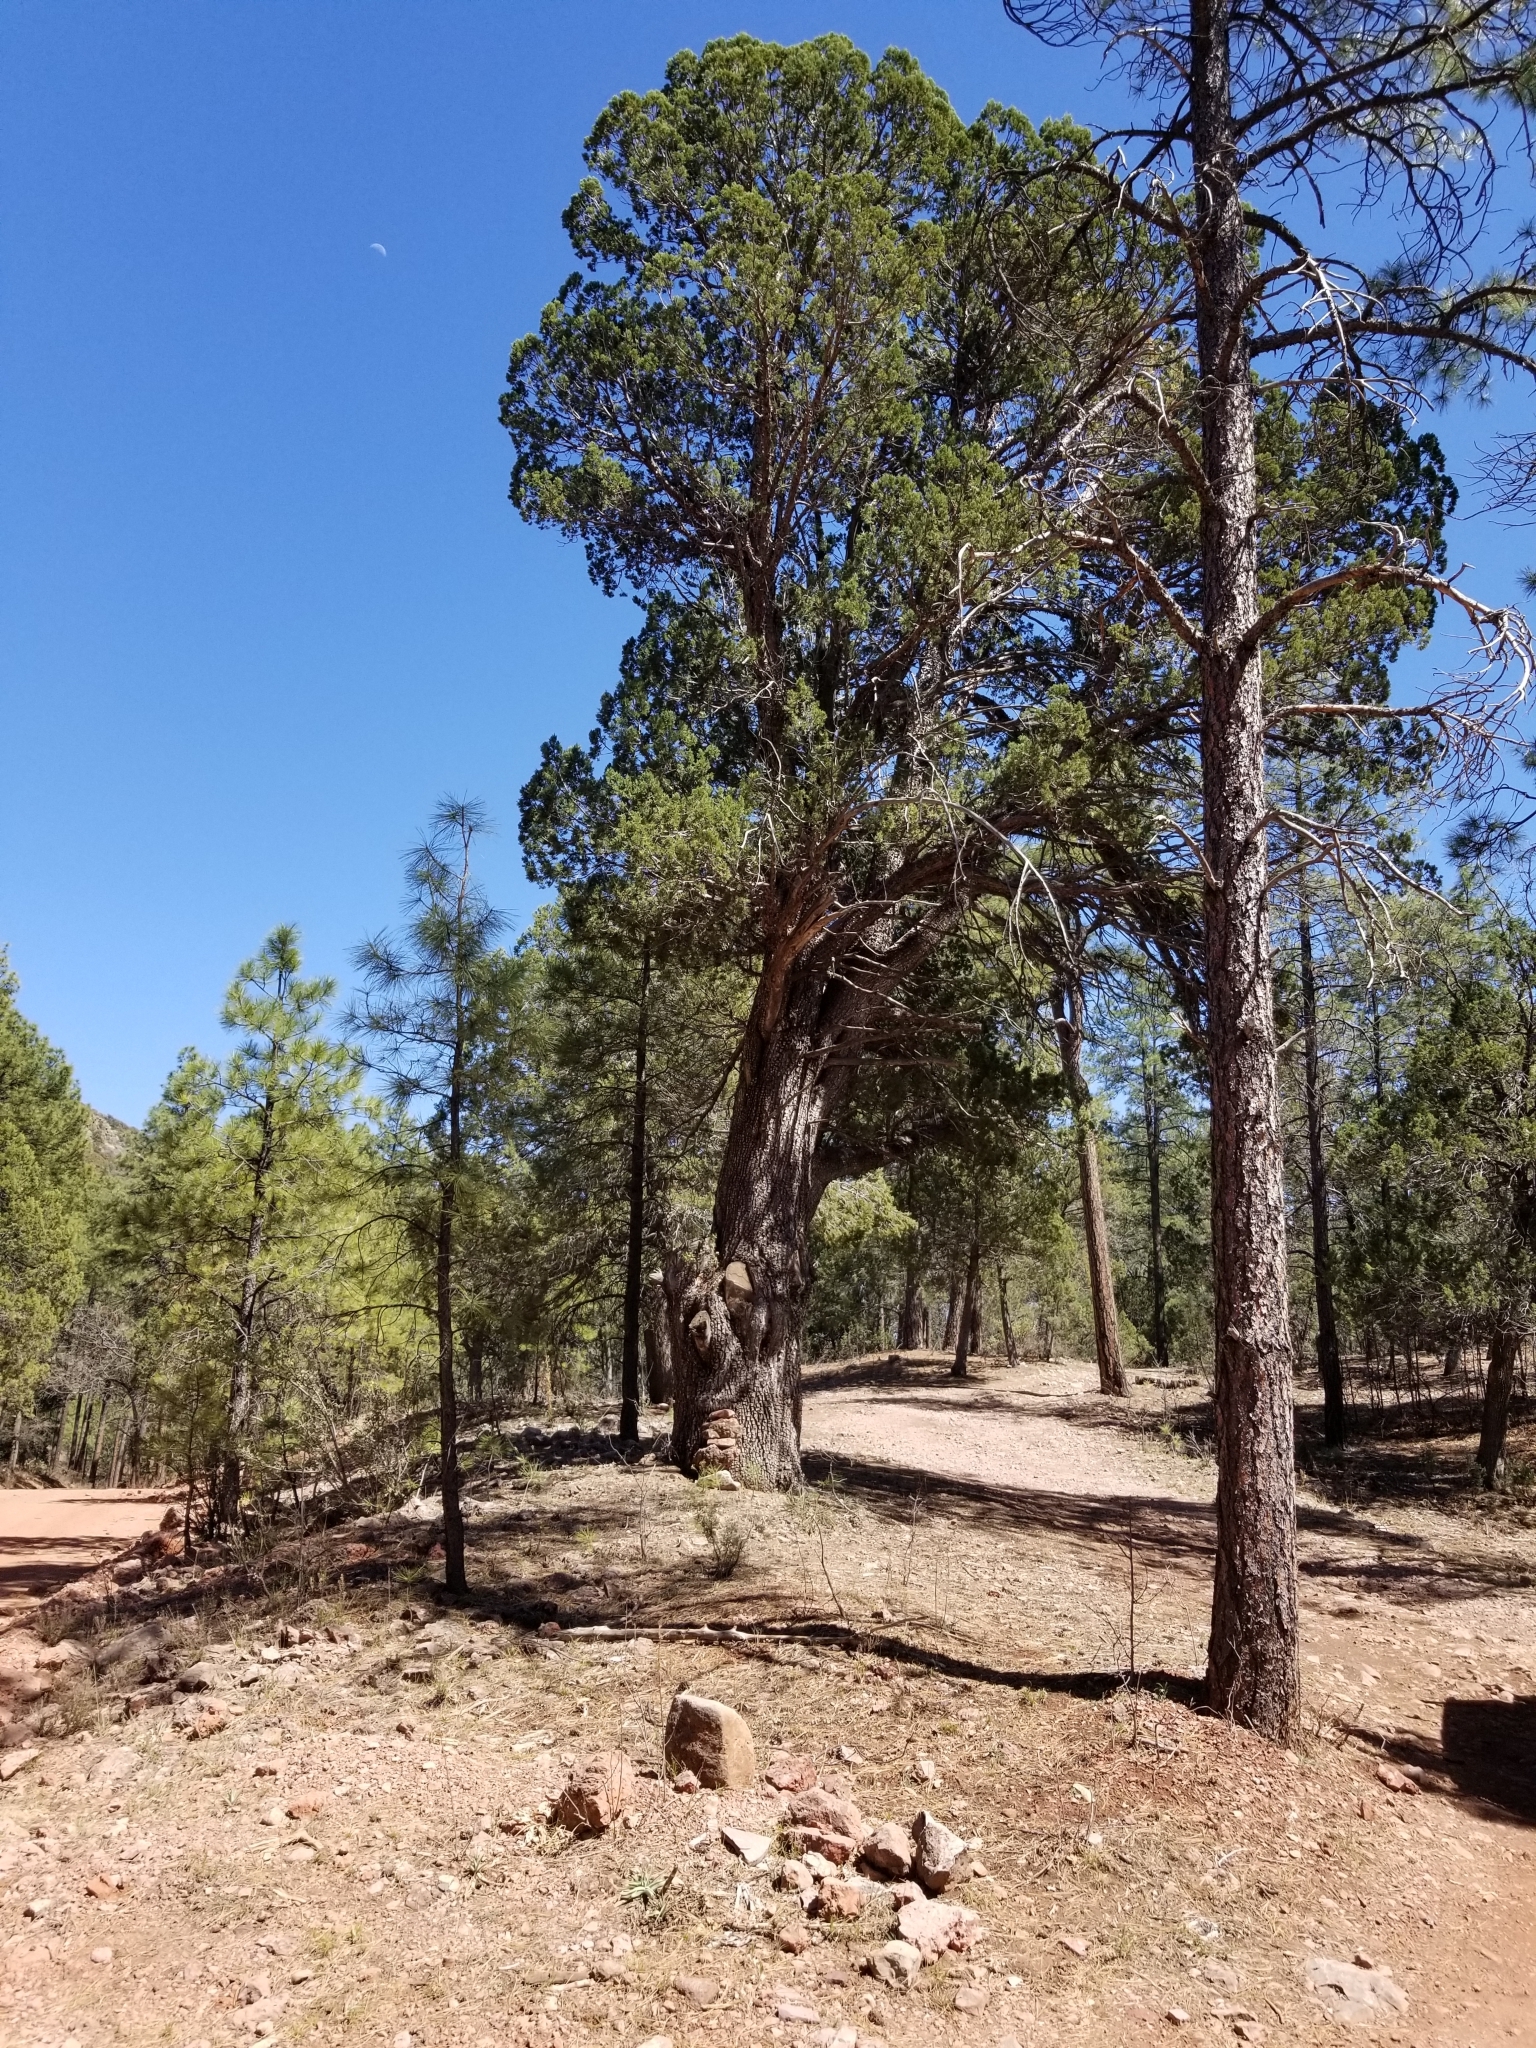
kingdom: Plantae
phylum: Tracheophyta
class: Pinopsida
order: Pinales
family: Cupressaceae
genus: Juniperus
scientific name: Juniperus deppeana
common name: Alligator juniper
